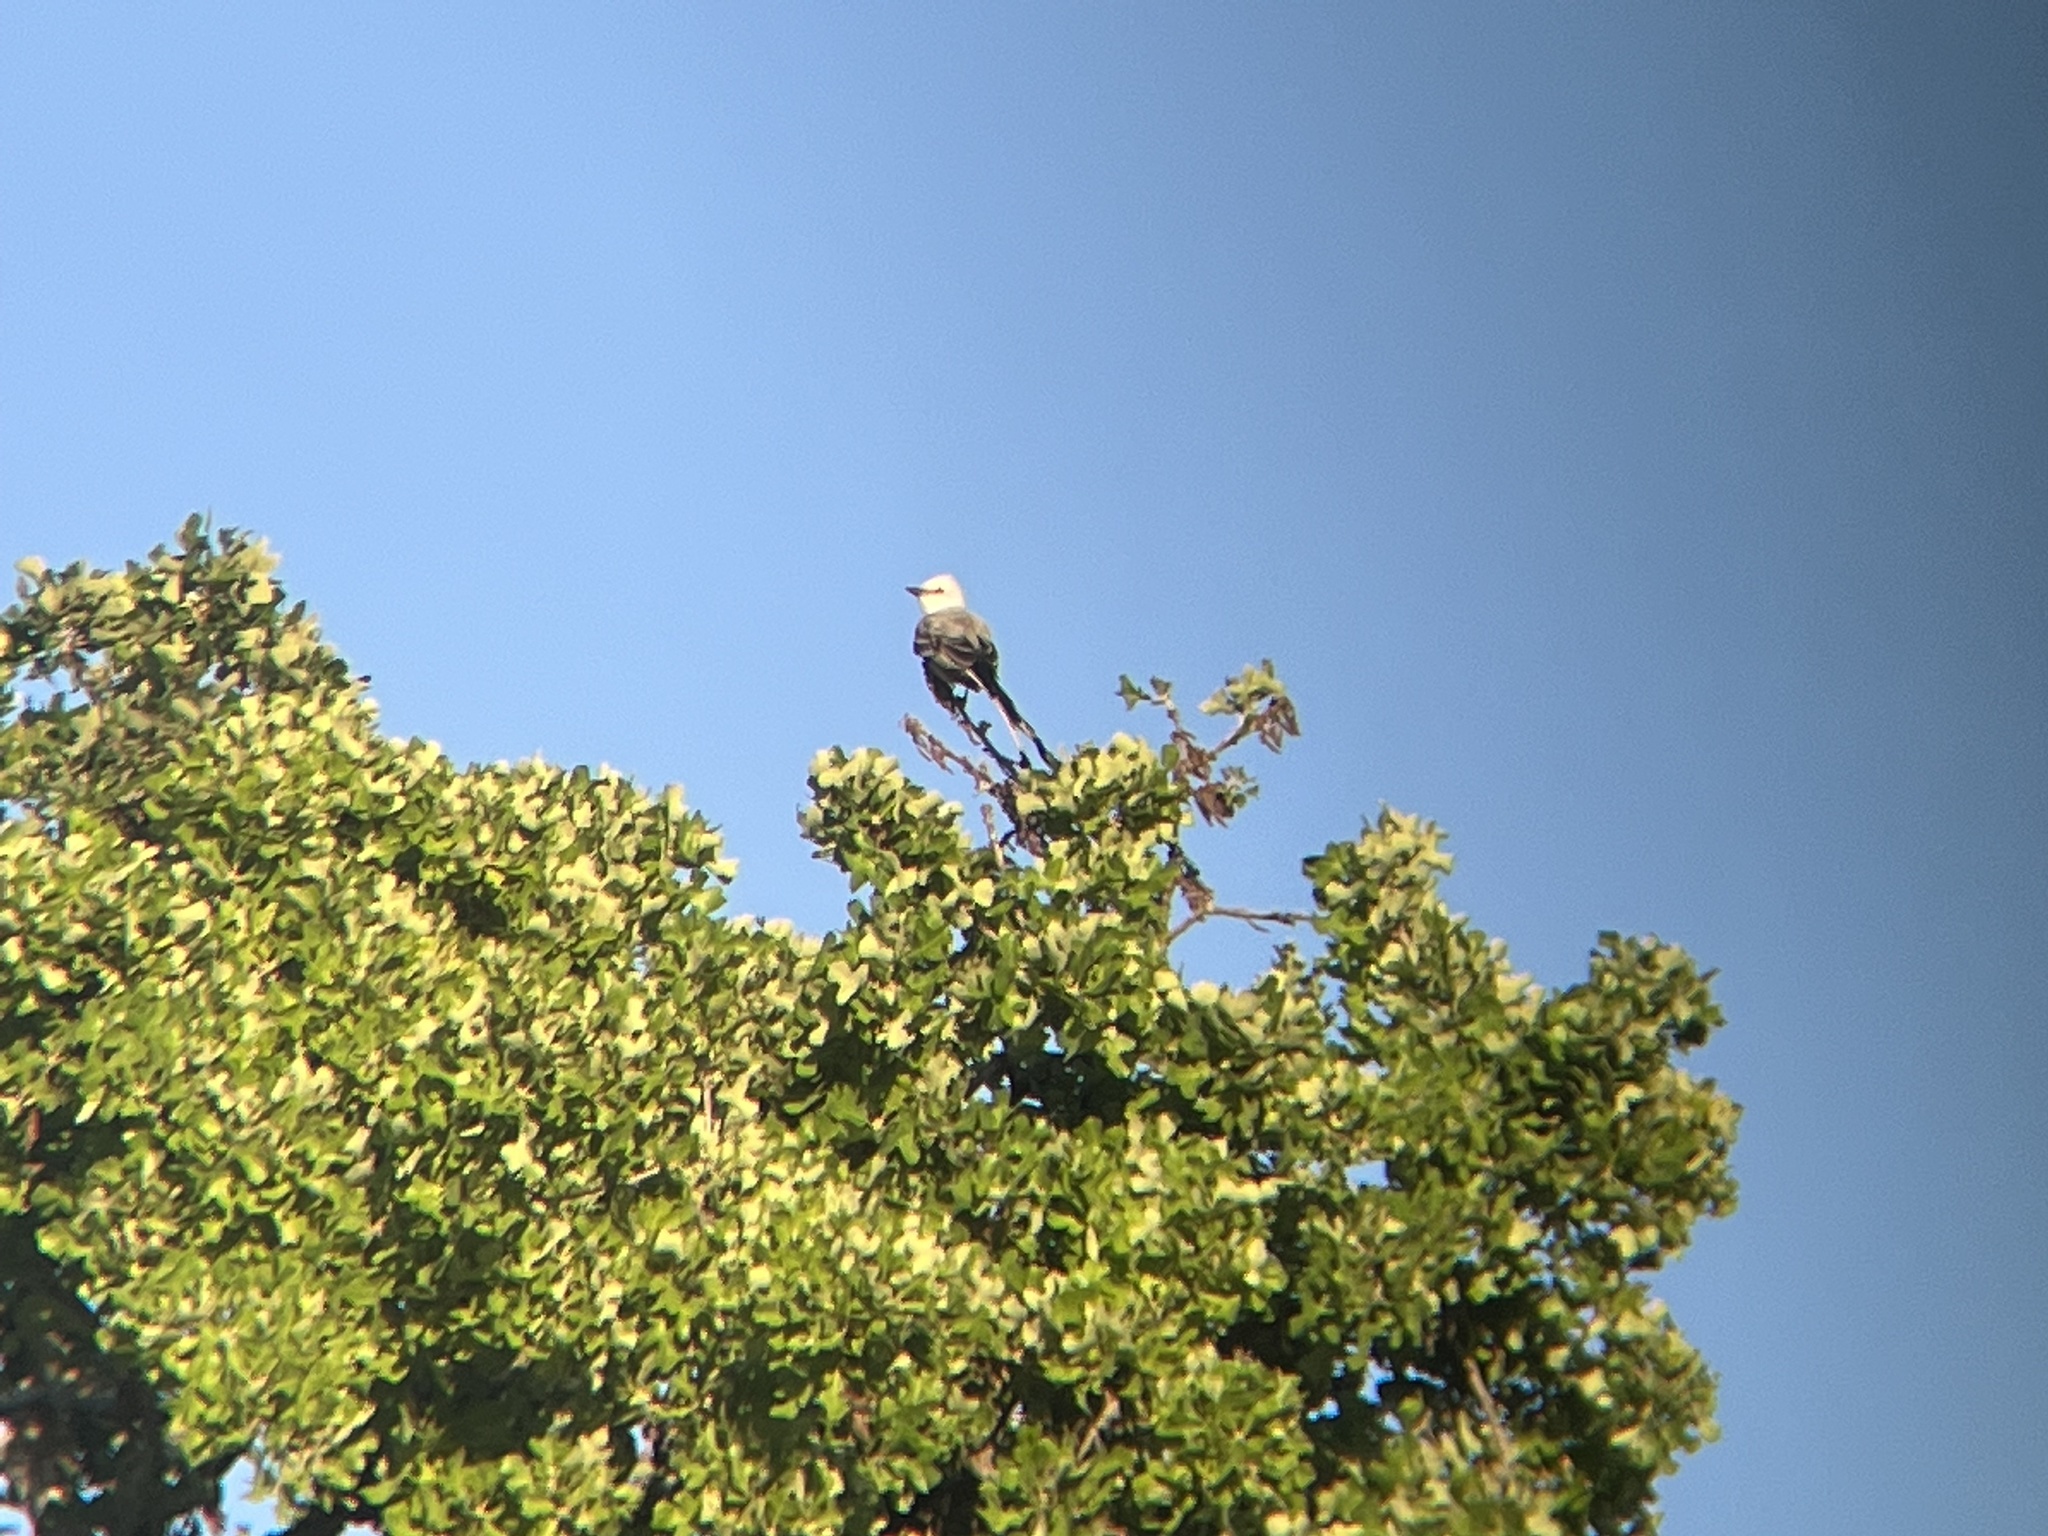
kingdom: Animalia
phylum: Chordata
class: Aves
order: Passeriformes
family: Tyrannidae
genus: Tyrannus
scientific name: Tyrannus forficatus
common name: Scissor-tailed flycatcher
